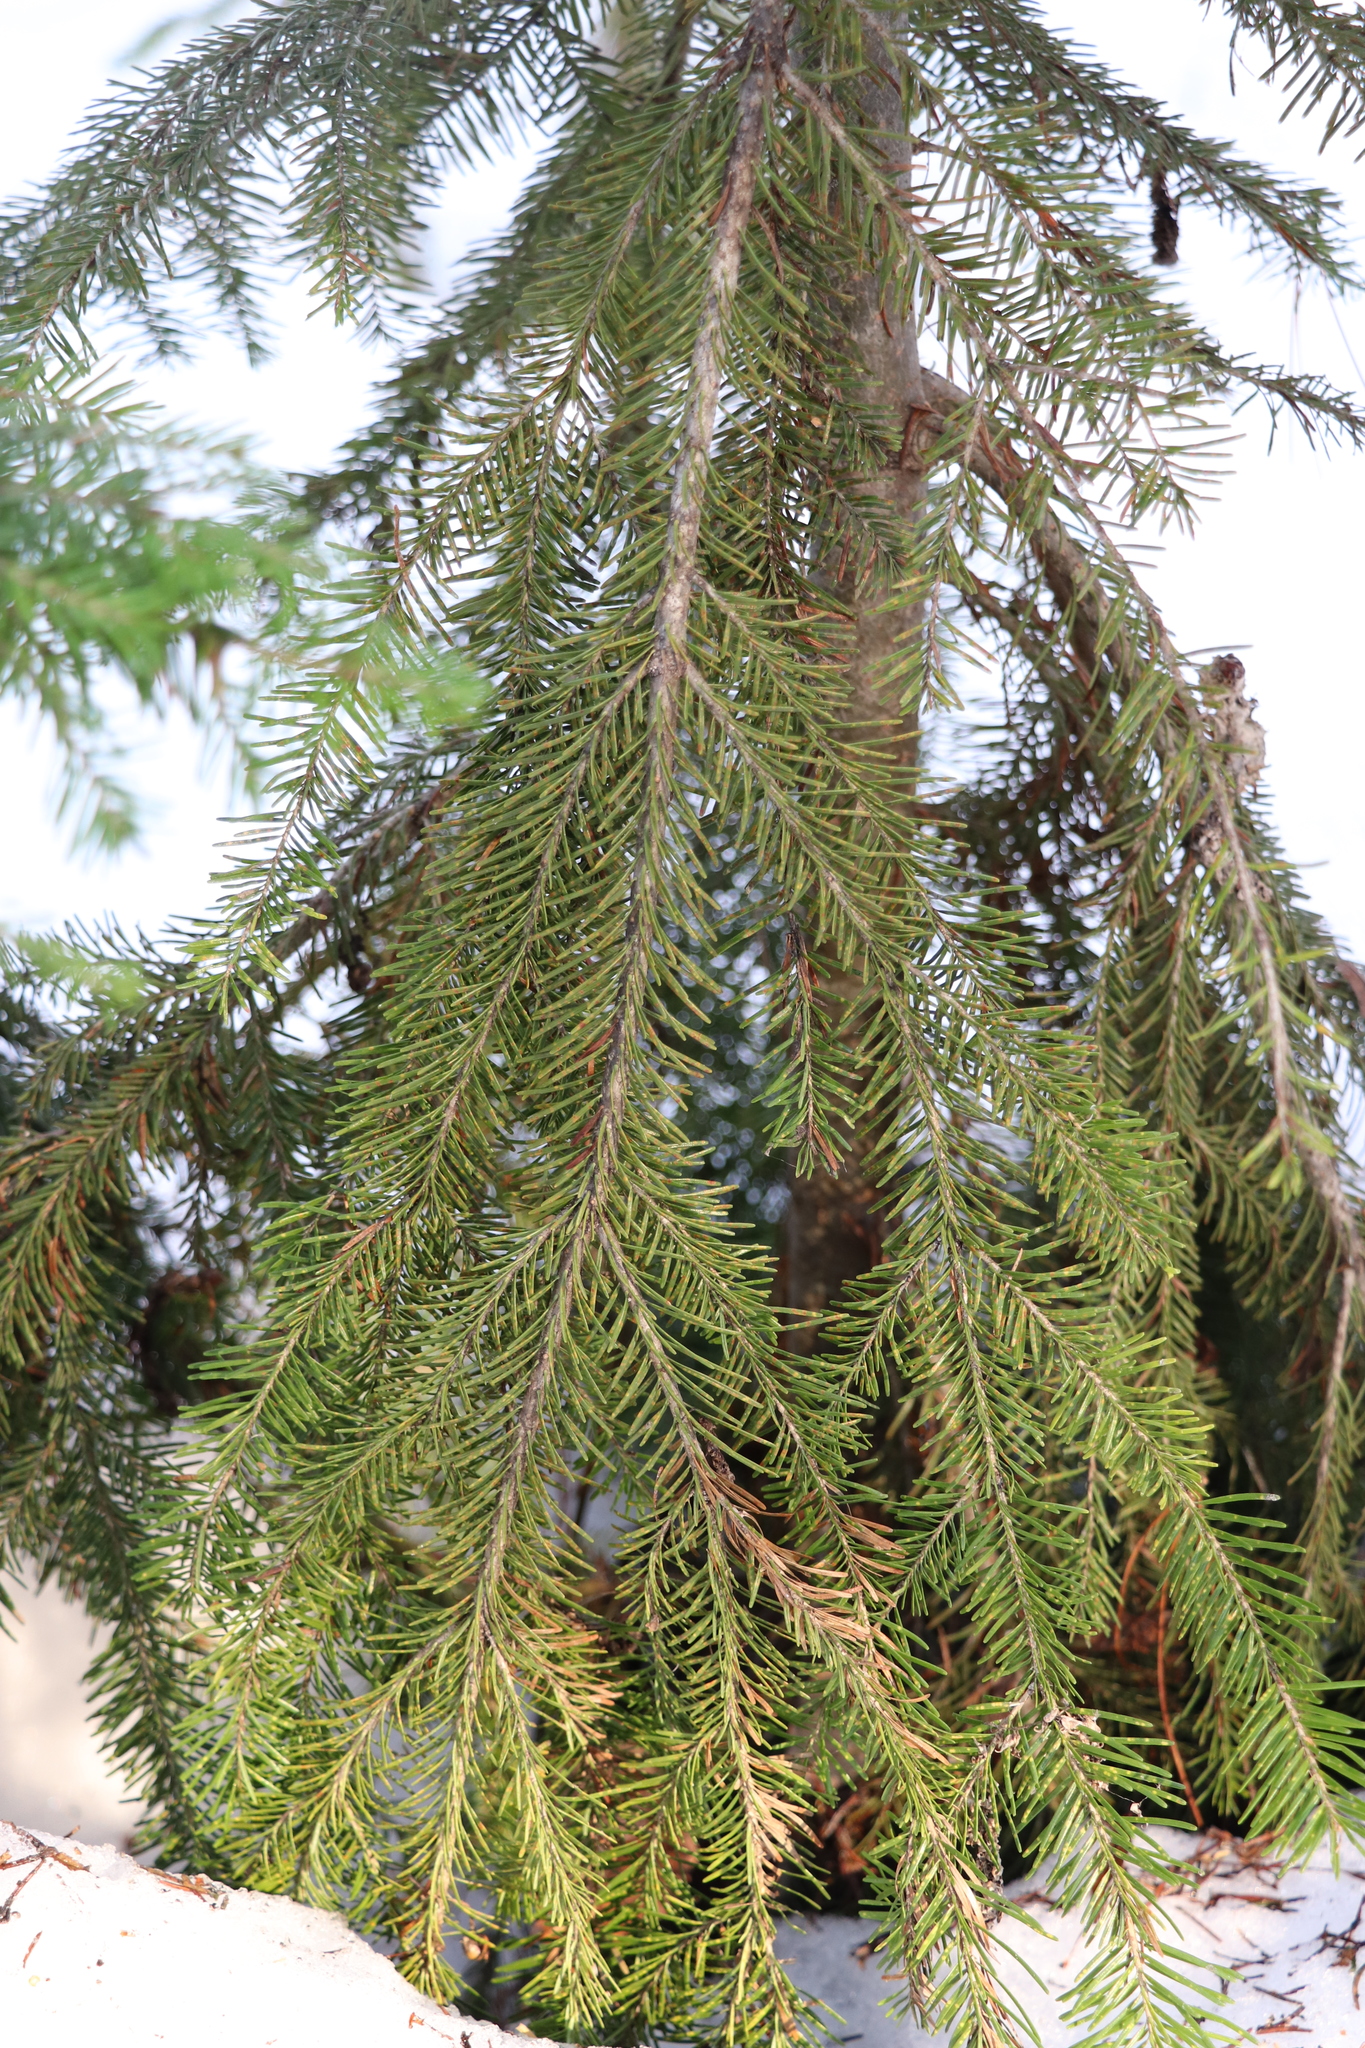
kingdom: Plantae
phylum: Tracheophyta
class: Pinopsida
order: Pinales
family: Pinaceae
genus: Abies
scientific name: Abies sibirica
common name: Siberian fir
